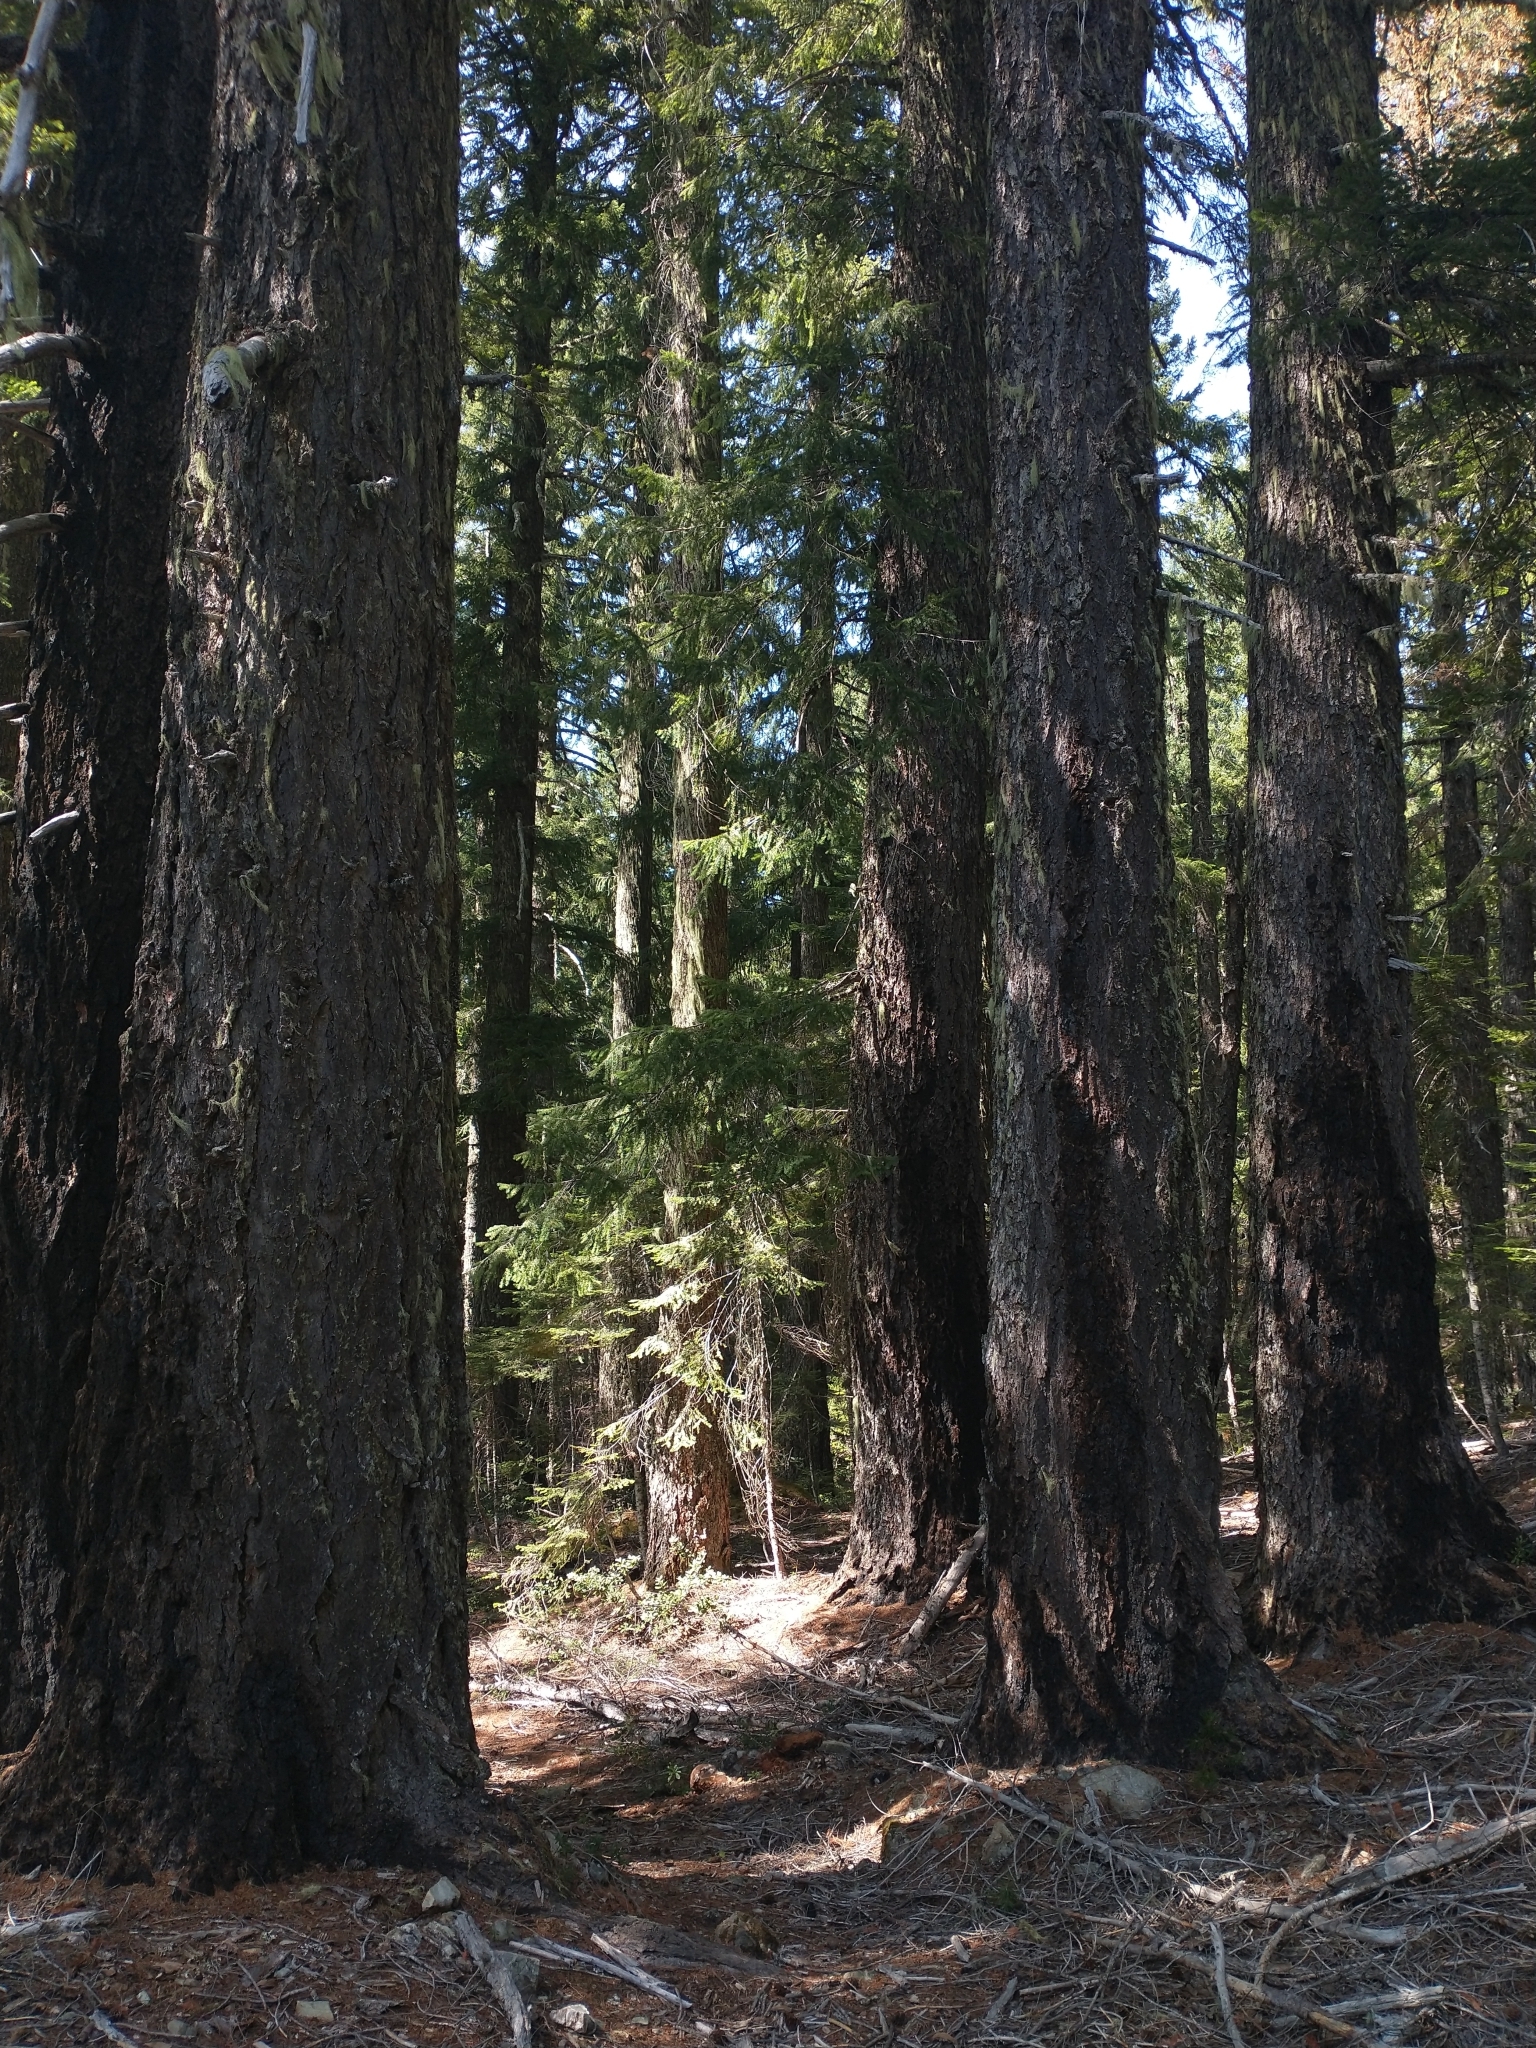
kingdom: Plantae
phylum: Tracheophyta
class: Pinopsida
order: Pinales
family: Pinaceae
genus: Pseudotsuga
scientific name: Pseudotsuga menziesii
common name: Douglas fir
